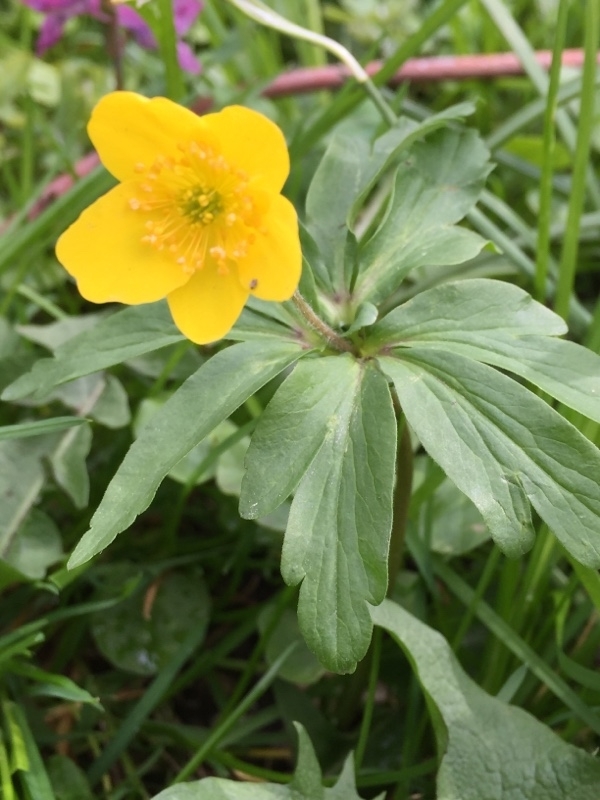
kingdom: Plantae
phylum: Tracheophyta
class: Magnoliopsida
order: Ranunculales
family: Ranunculaceae
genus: Anemone
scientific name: Anemone ranunculoides
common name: Yellow anemone
